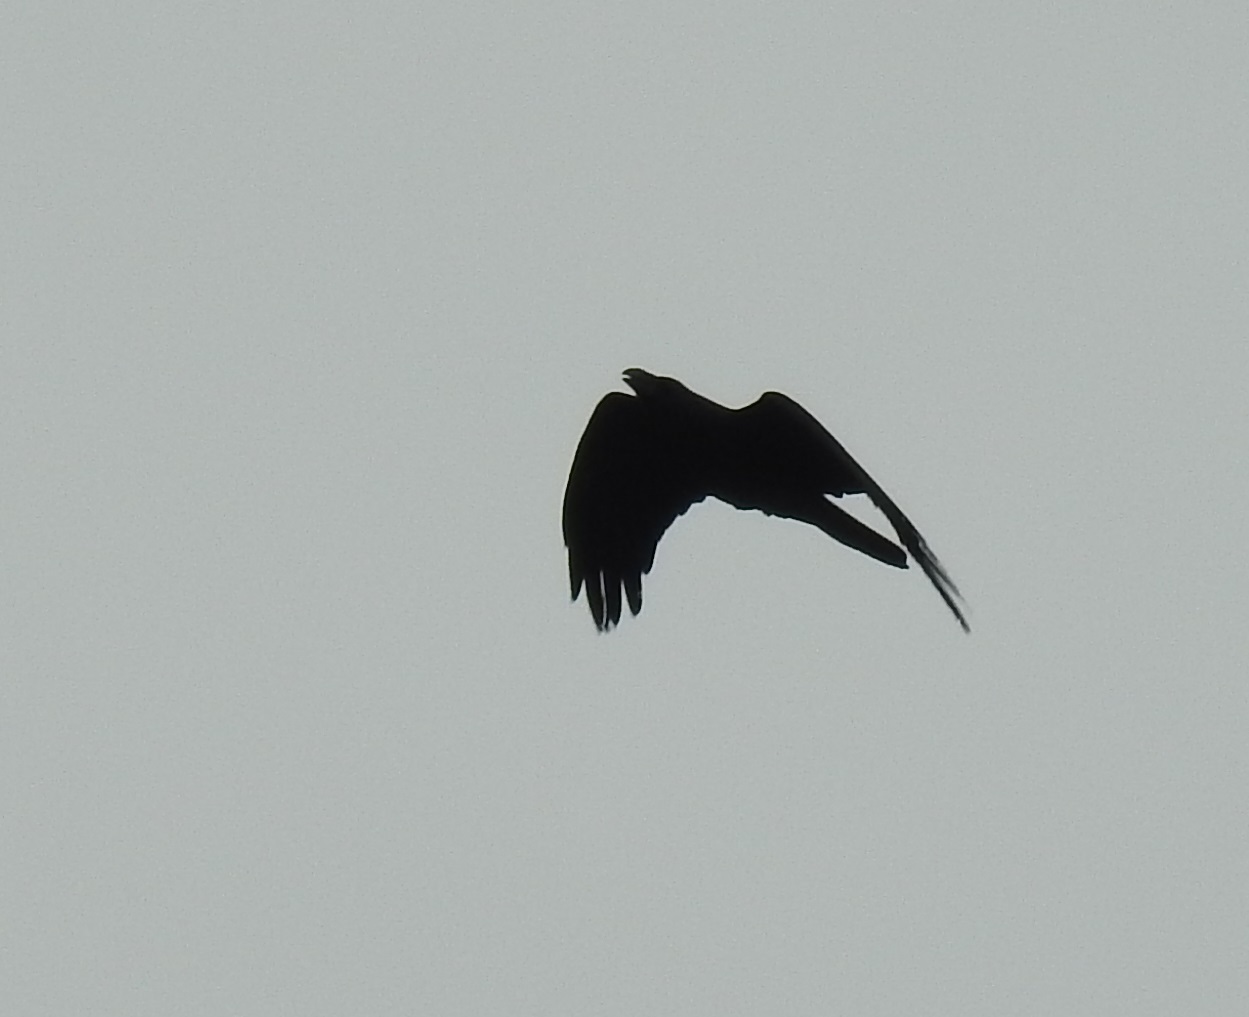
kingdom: Animalia
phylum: Chordata
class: Aves
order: Passeriformes
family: Corvidae
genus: Corvus
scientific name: Corvus corax
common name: Common raven
